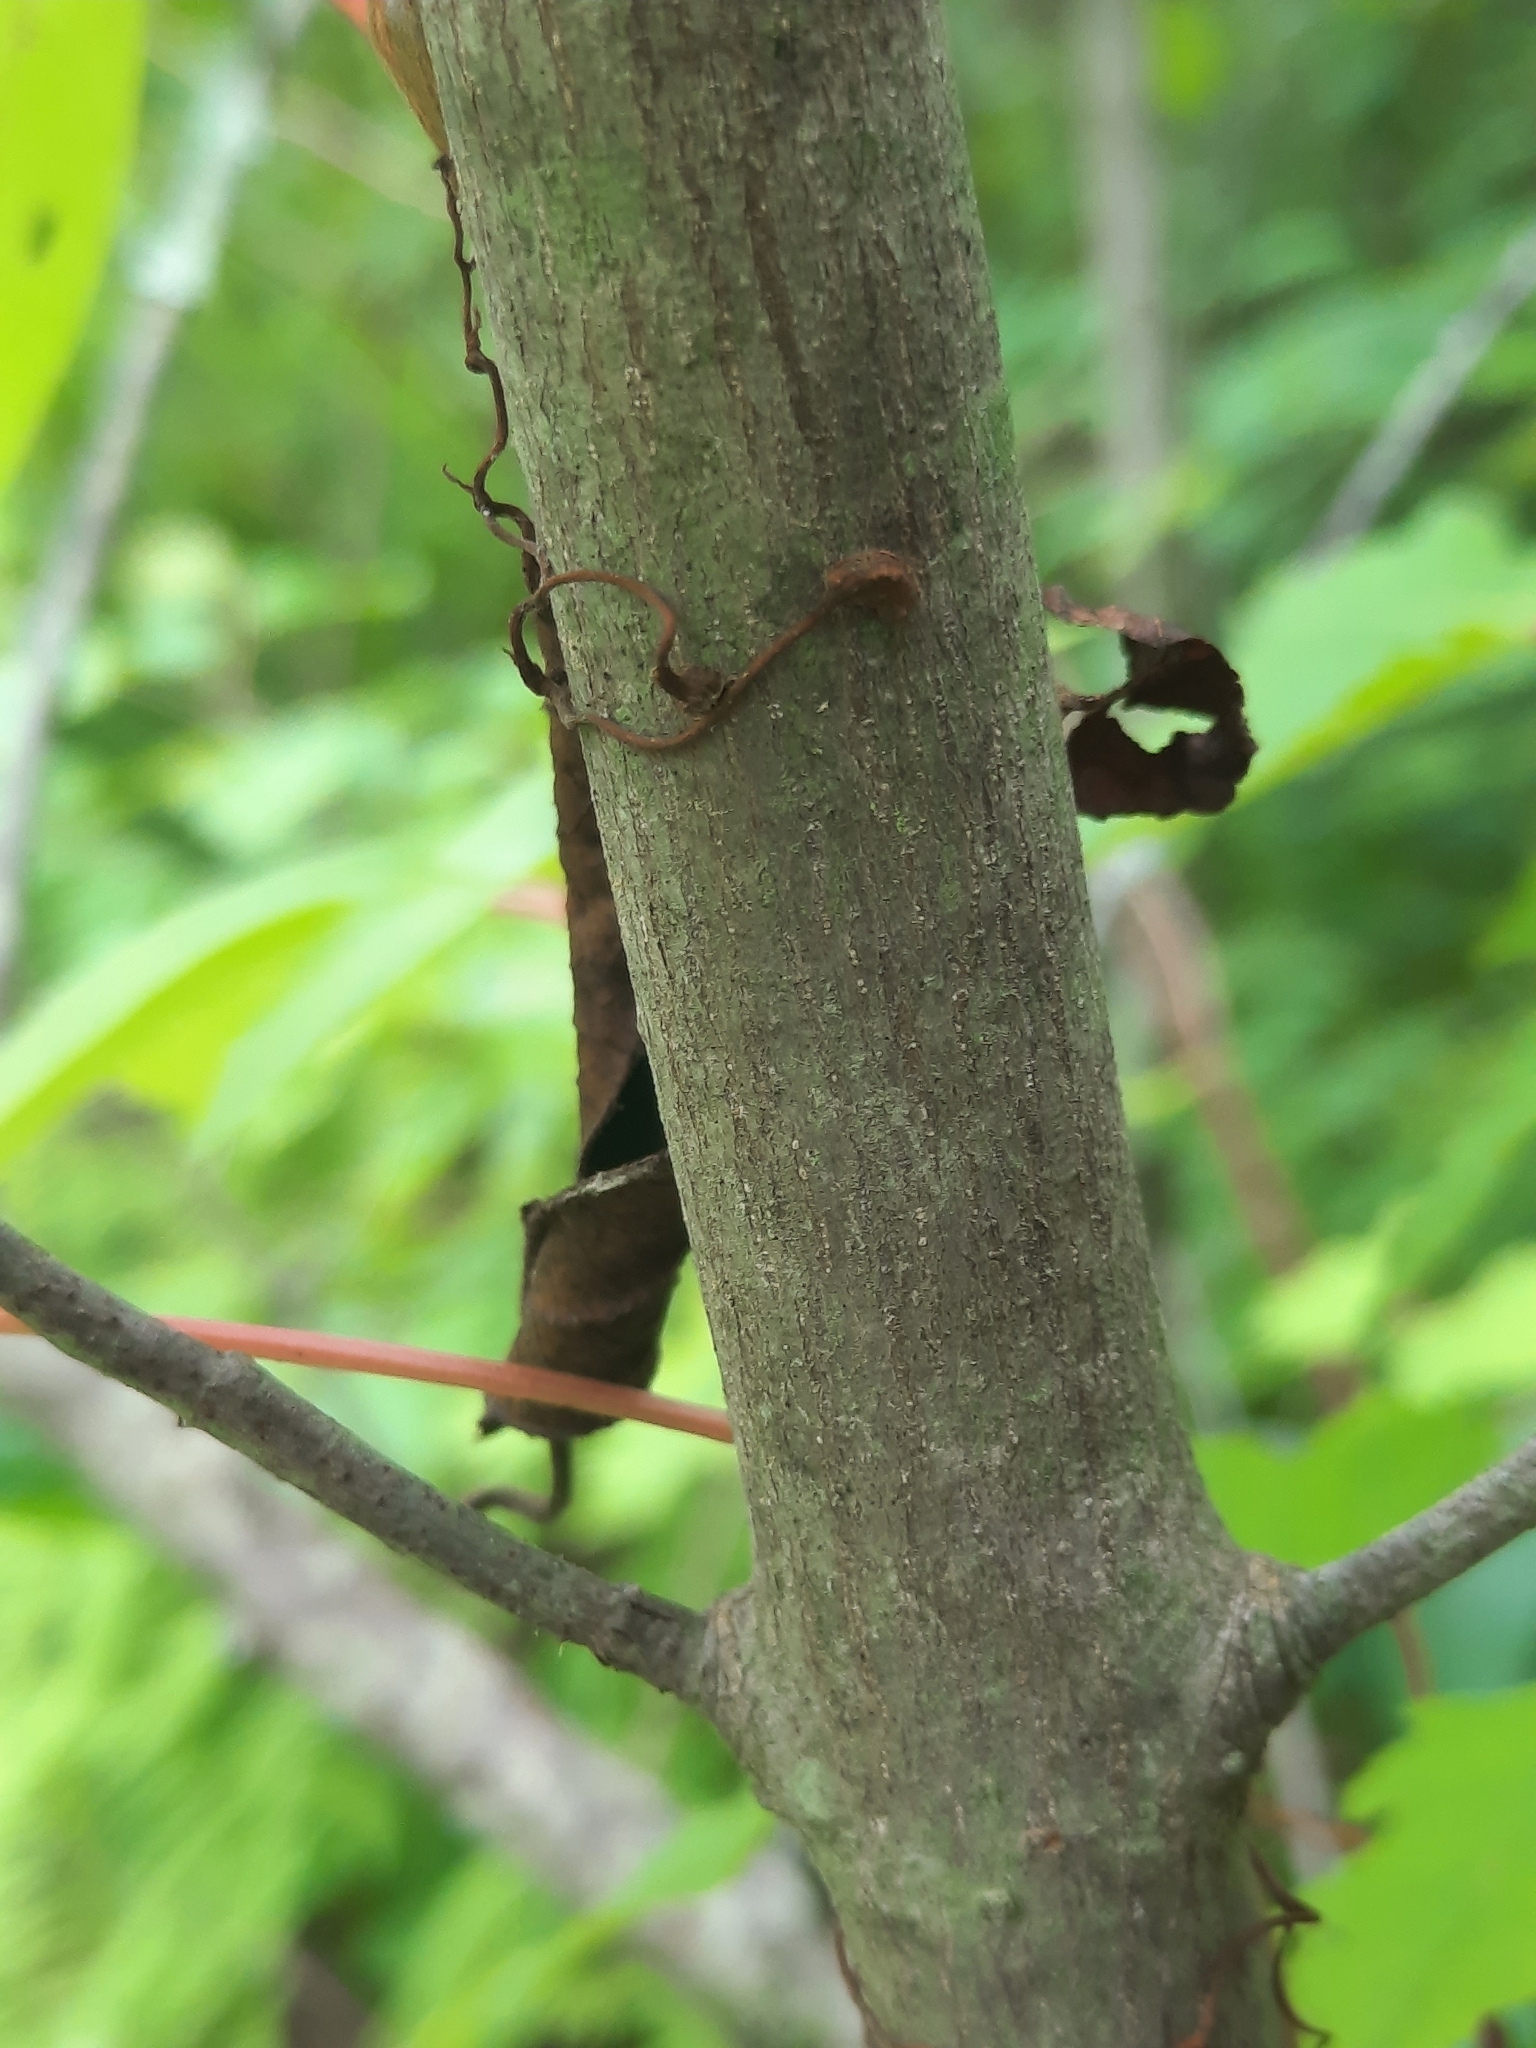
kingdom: Plantae
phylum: Tracheophyta
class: Magnoliopsida
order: Vitales
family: Vitaceae
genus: Parthenocissus
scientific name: Parthenocissus
